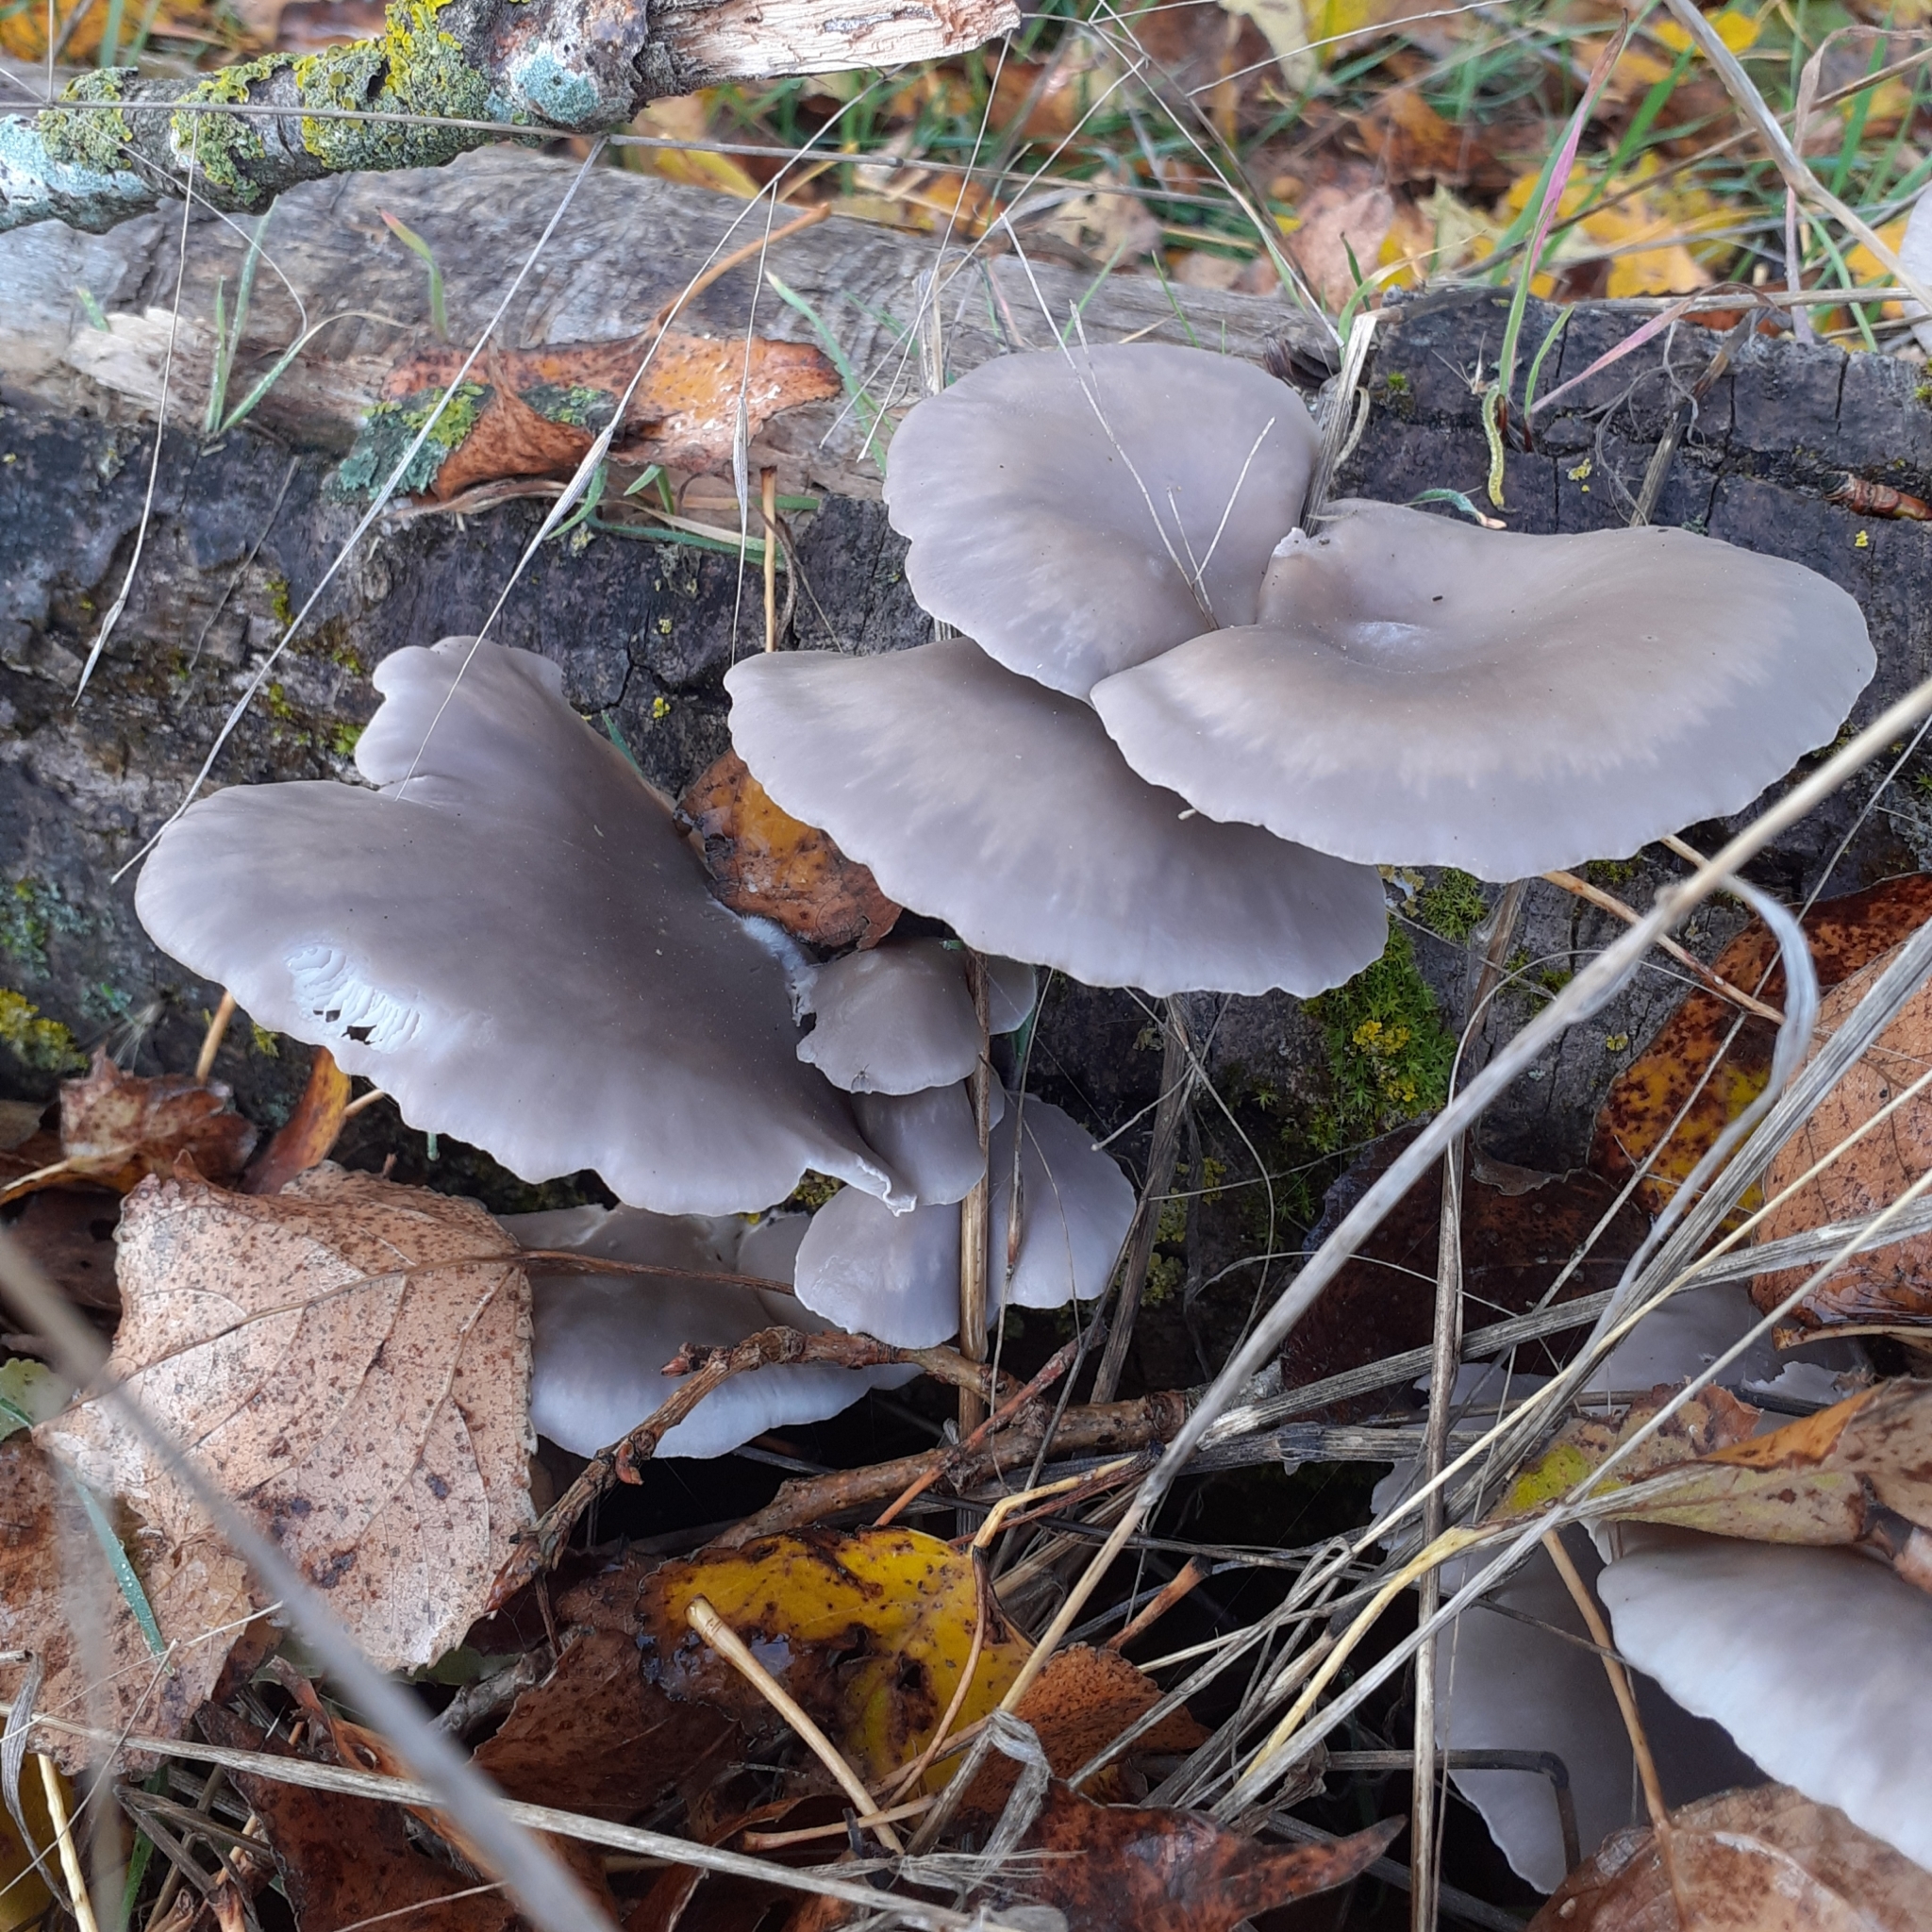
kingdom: Fungi
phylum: Basidiomycota
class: Agaricomycetes
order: Agaricales
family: Pleurotaceae
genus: Pleurotus
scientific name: Pleurotus ostreatus
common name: Oyster mushroom
